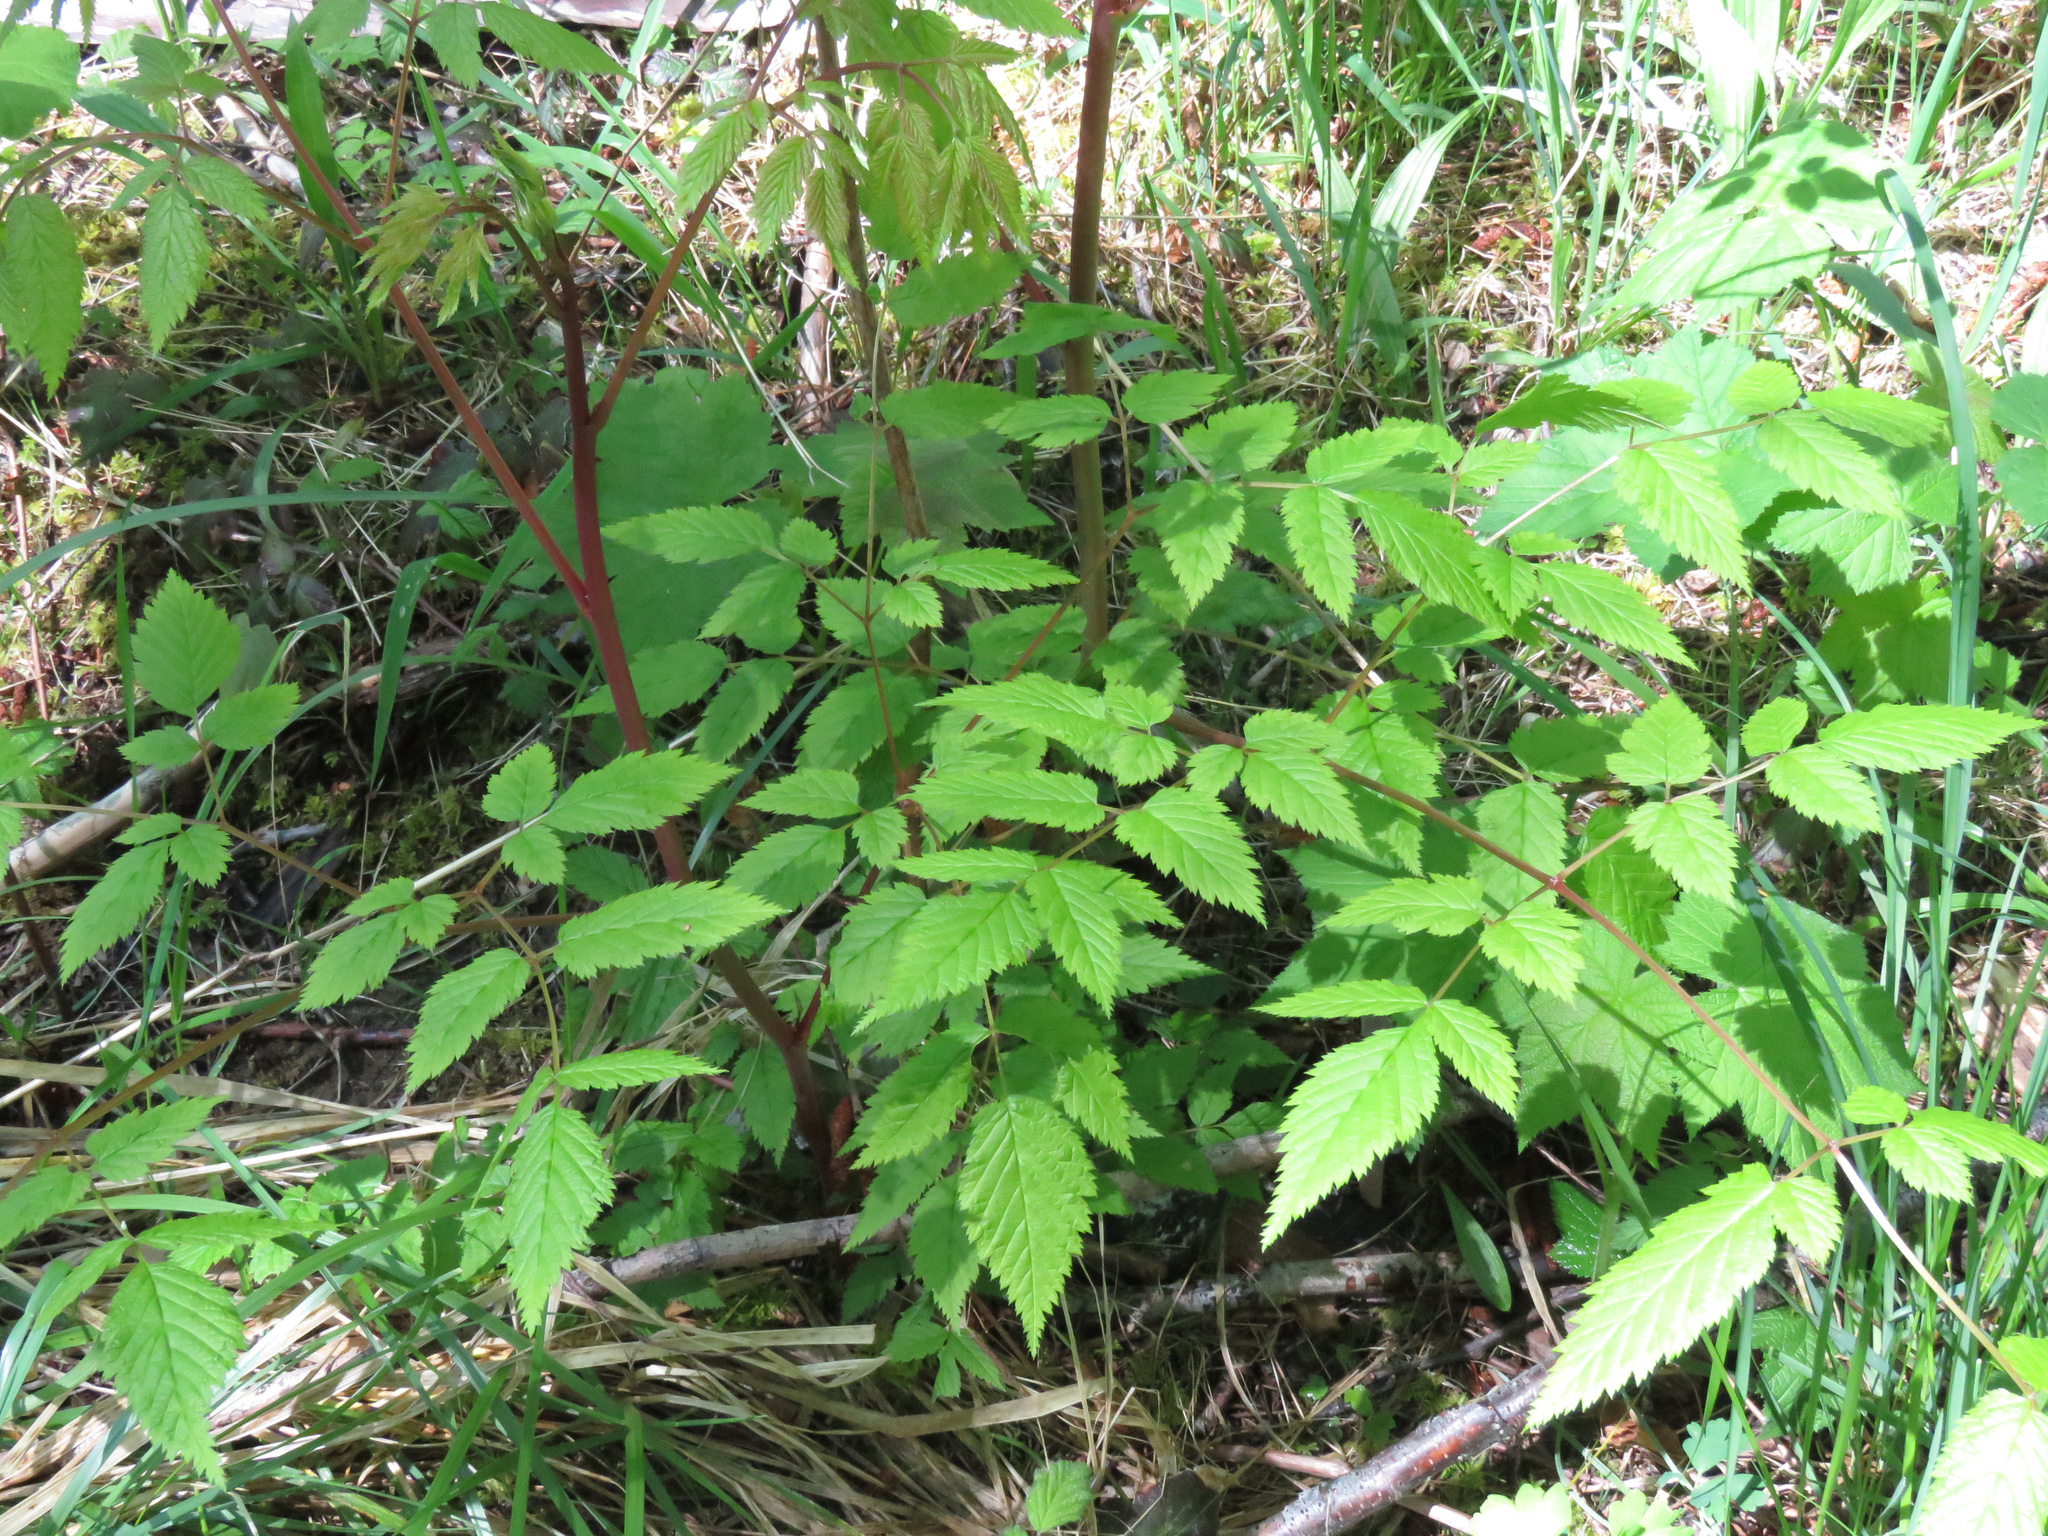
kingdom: Plantae
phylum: Tracheophyta
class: Magnoliopsida
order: Rosales
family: Rosaceae
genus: Aruncus
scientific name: Aruncus dioicus
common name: Buck's-beard
